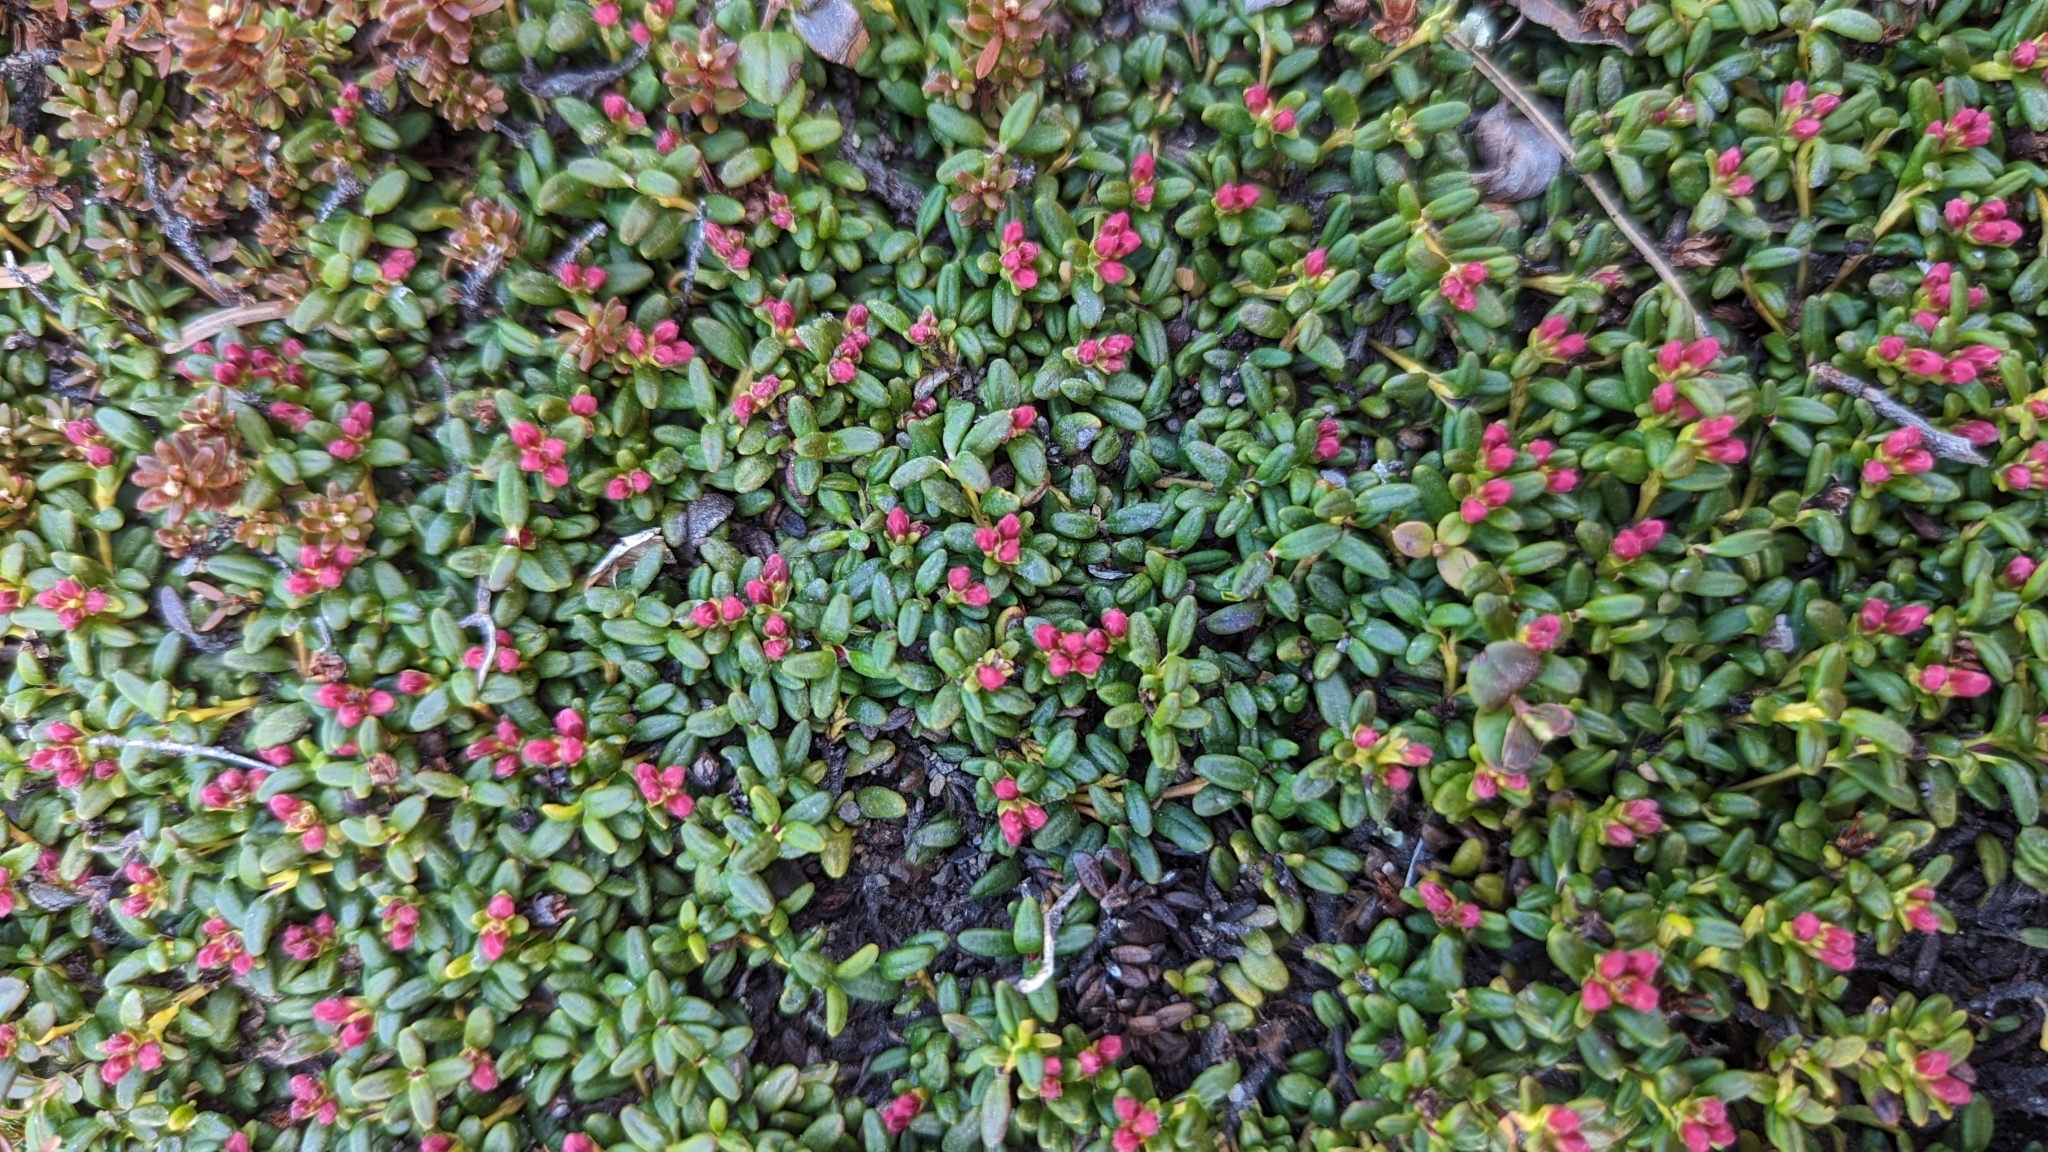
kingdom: Plantae
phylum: Tracheophyta
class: Magnoliopsida
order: Ericales
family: Ericaceae
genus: Kalmia
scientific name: Kalmia procumbens
